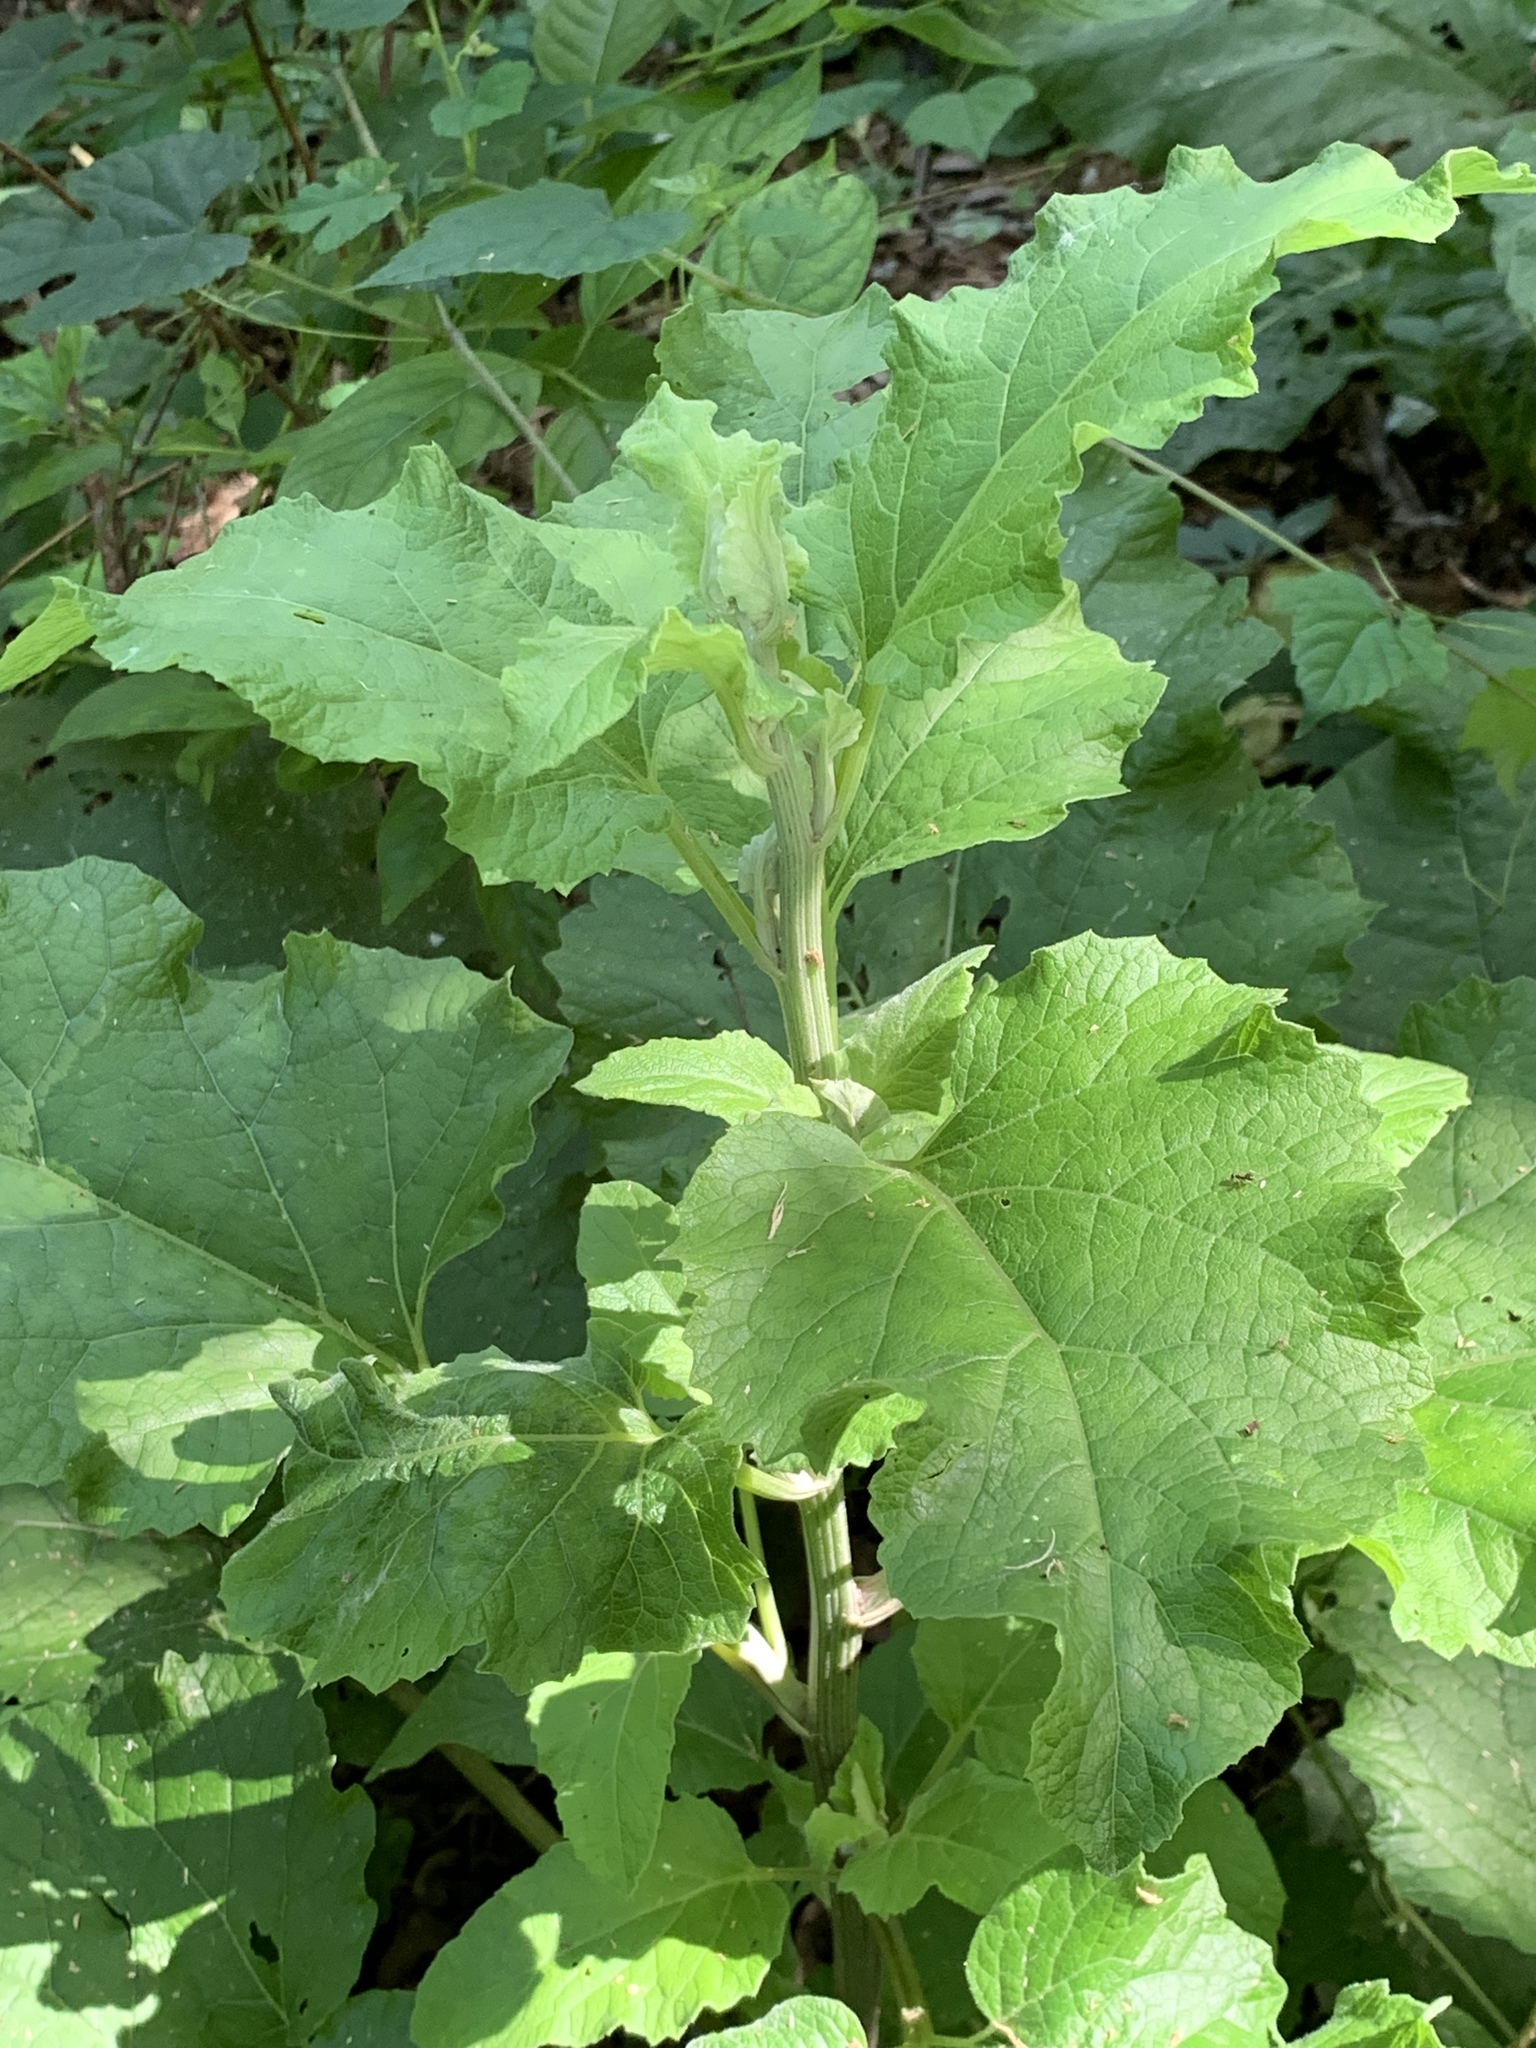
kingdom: Plantae
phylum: Tracheophyta
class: Magnoliopsida
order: Asterales
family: Asteraceae
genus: Arctium
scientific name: Arctium
